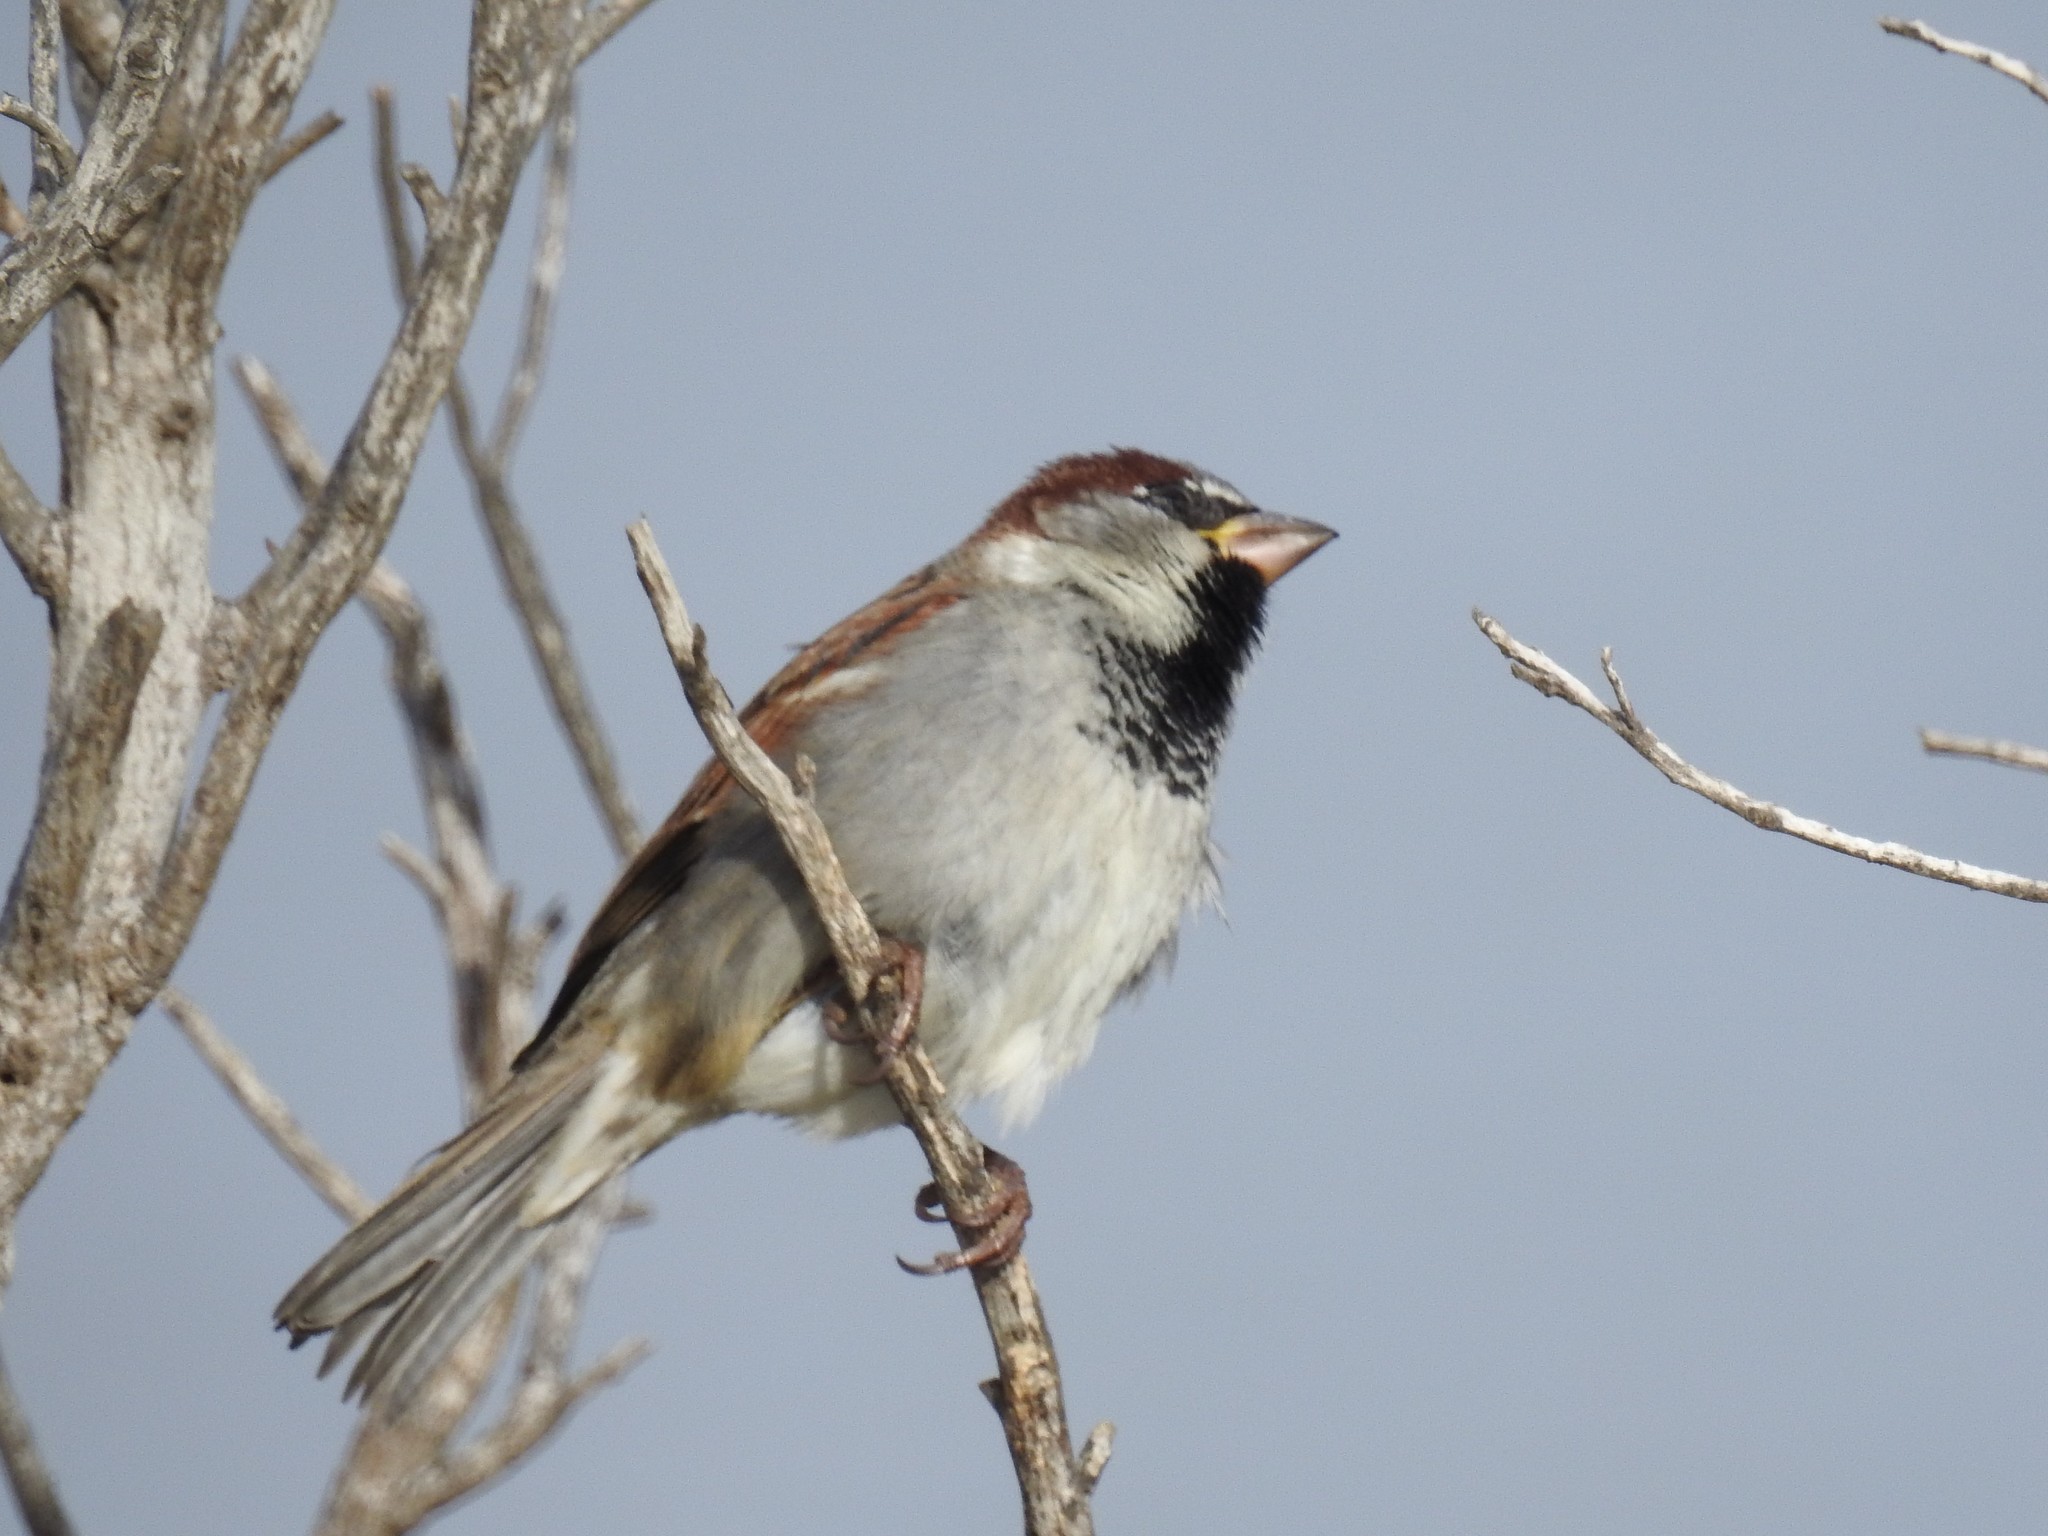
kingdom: Animalia
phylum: Chordata
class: Aves
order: Passeriformes
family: Passeridae
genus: Passer
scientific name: Passer domesticus
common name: House sparrow
